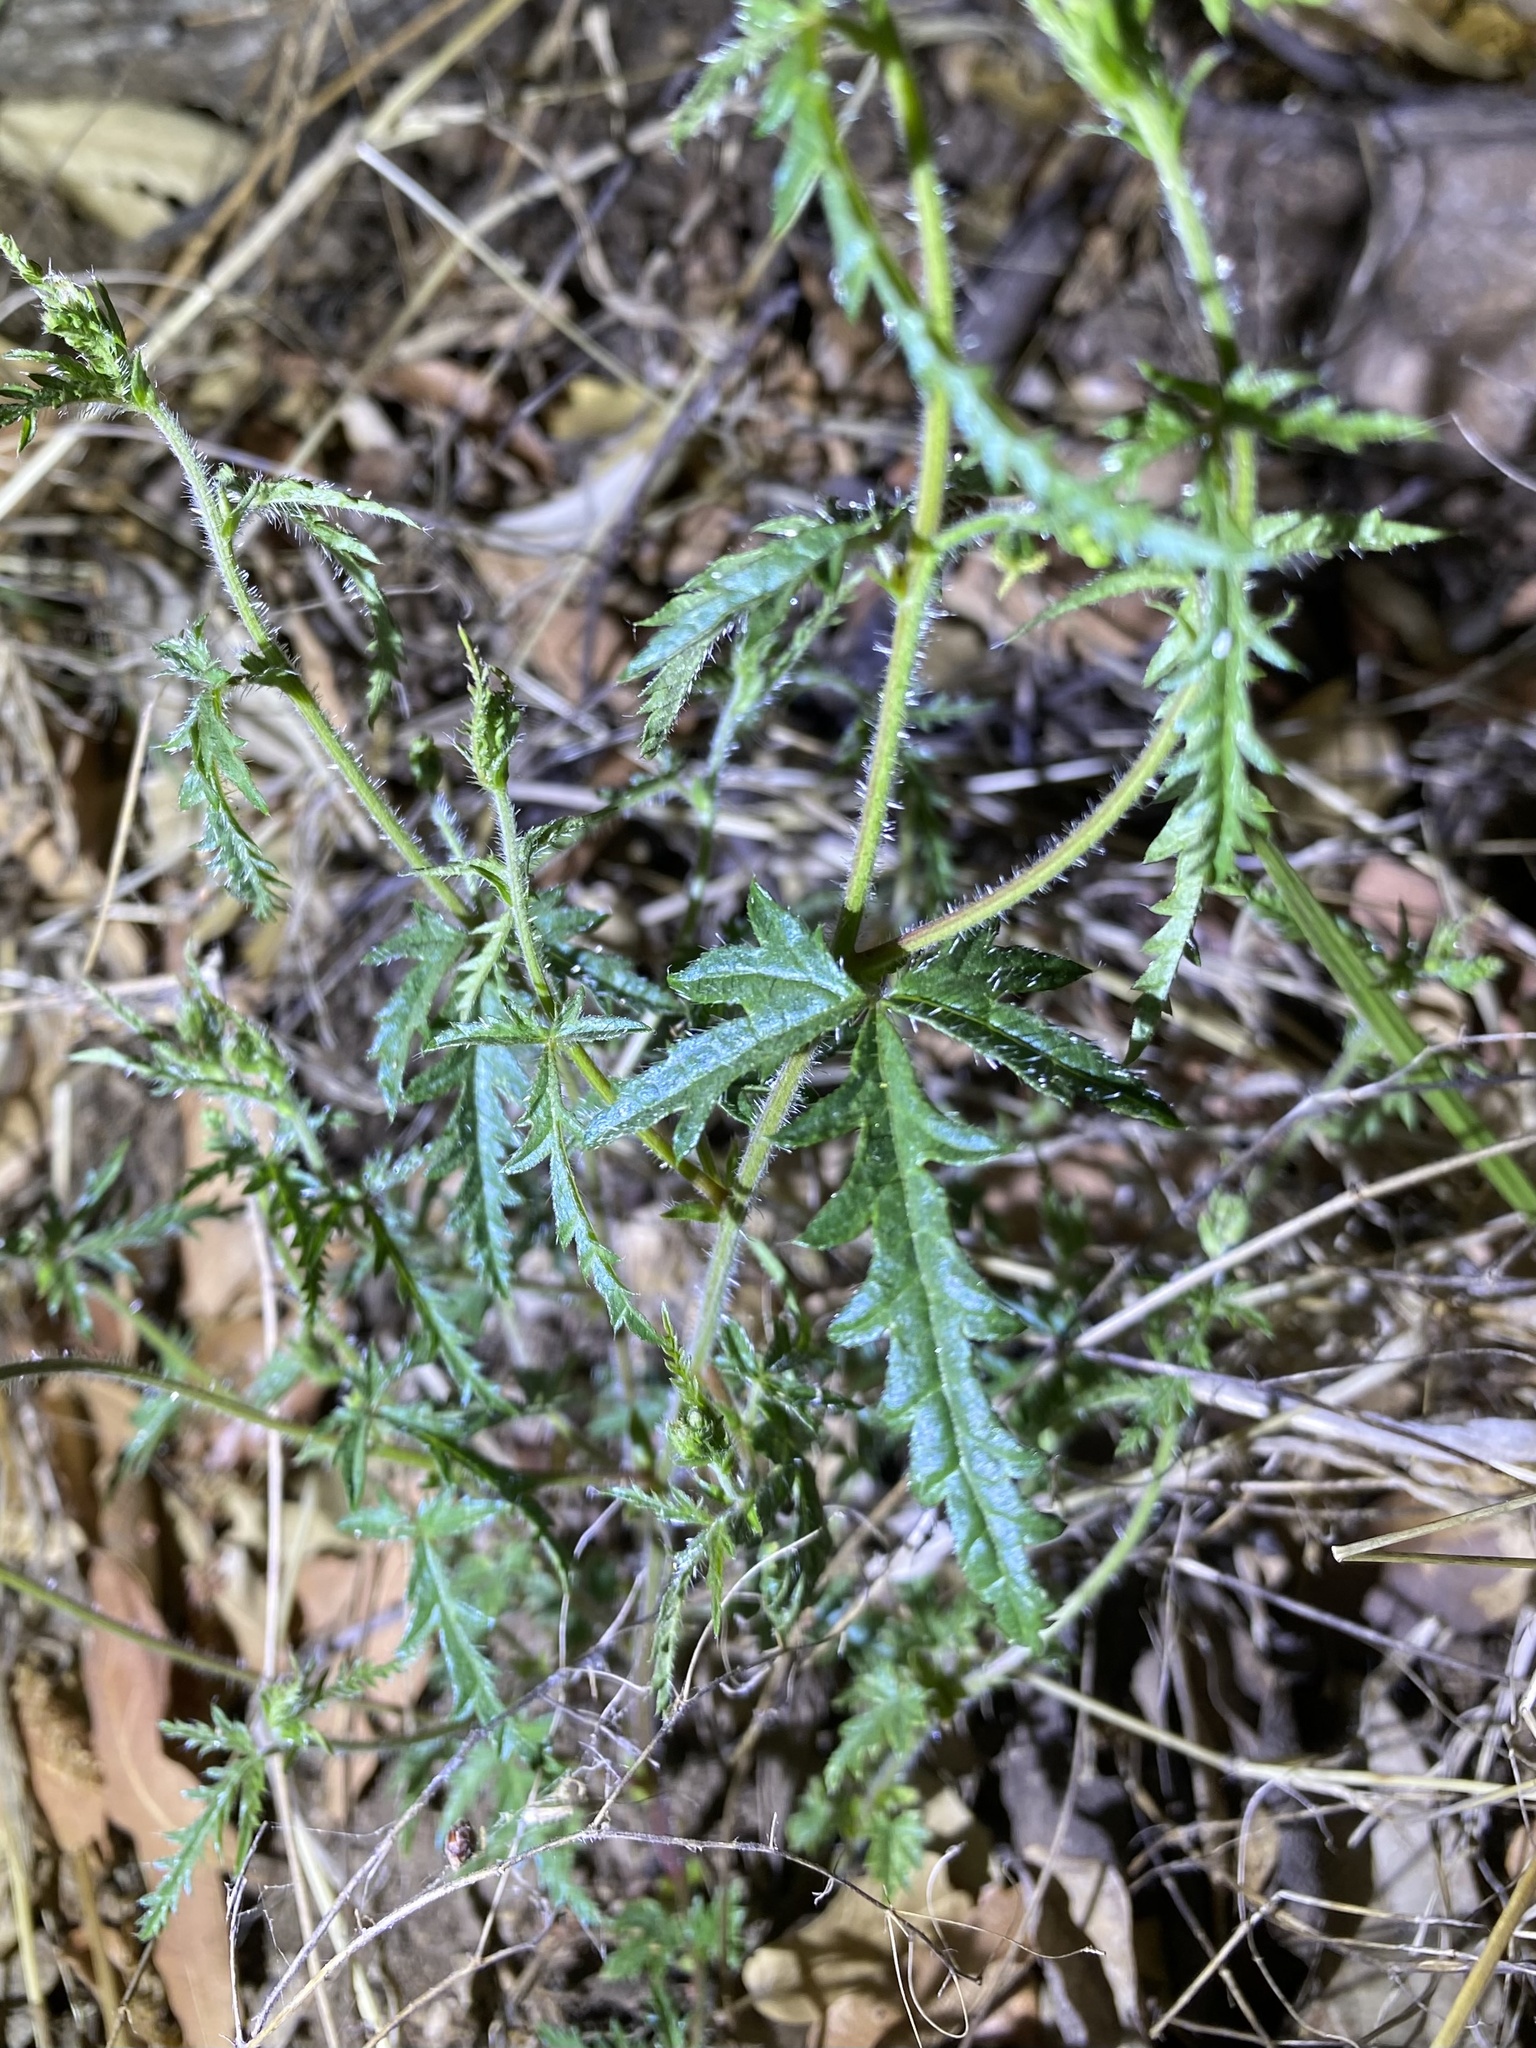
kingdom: Plantae
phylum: Tracheophyta
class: Magnoliopsida
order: Malpighiales
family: Euphorbiaceae
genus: Tragia
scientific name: Tragia laciniata
